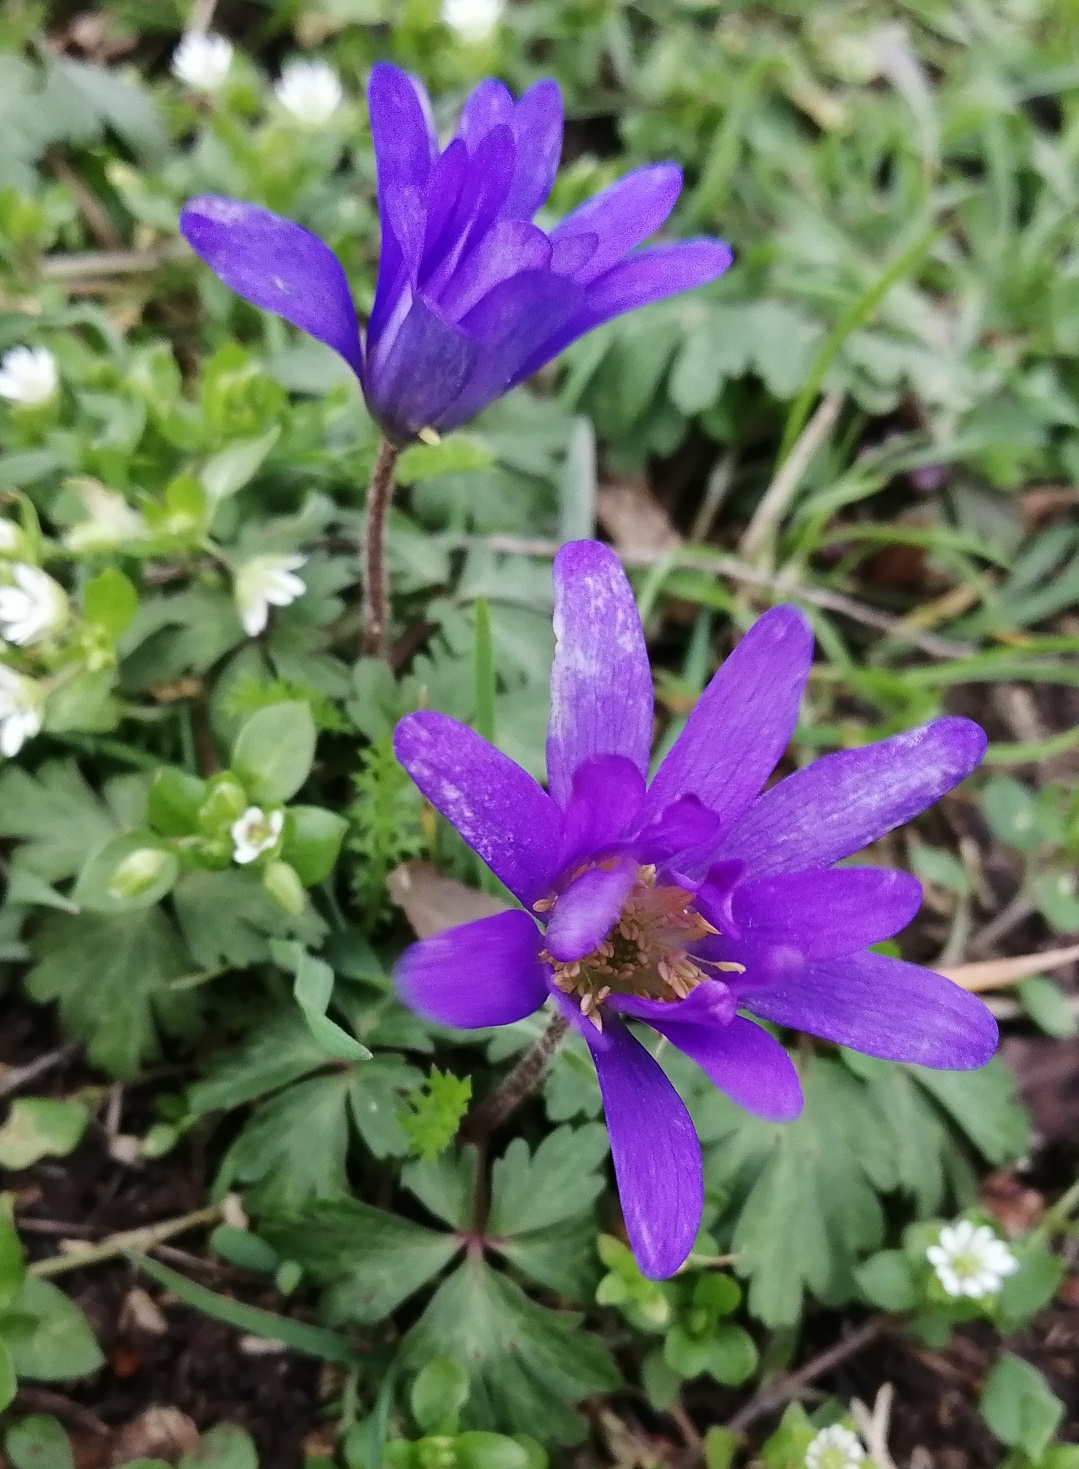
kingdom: Plantae
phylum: Tracheophyta
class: Magnoliopsida
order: Ranunculales
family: Ranunculaceae
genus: Anemone
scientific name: Anemone blanda
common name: Balkan anemone
